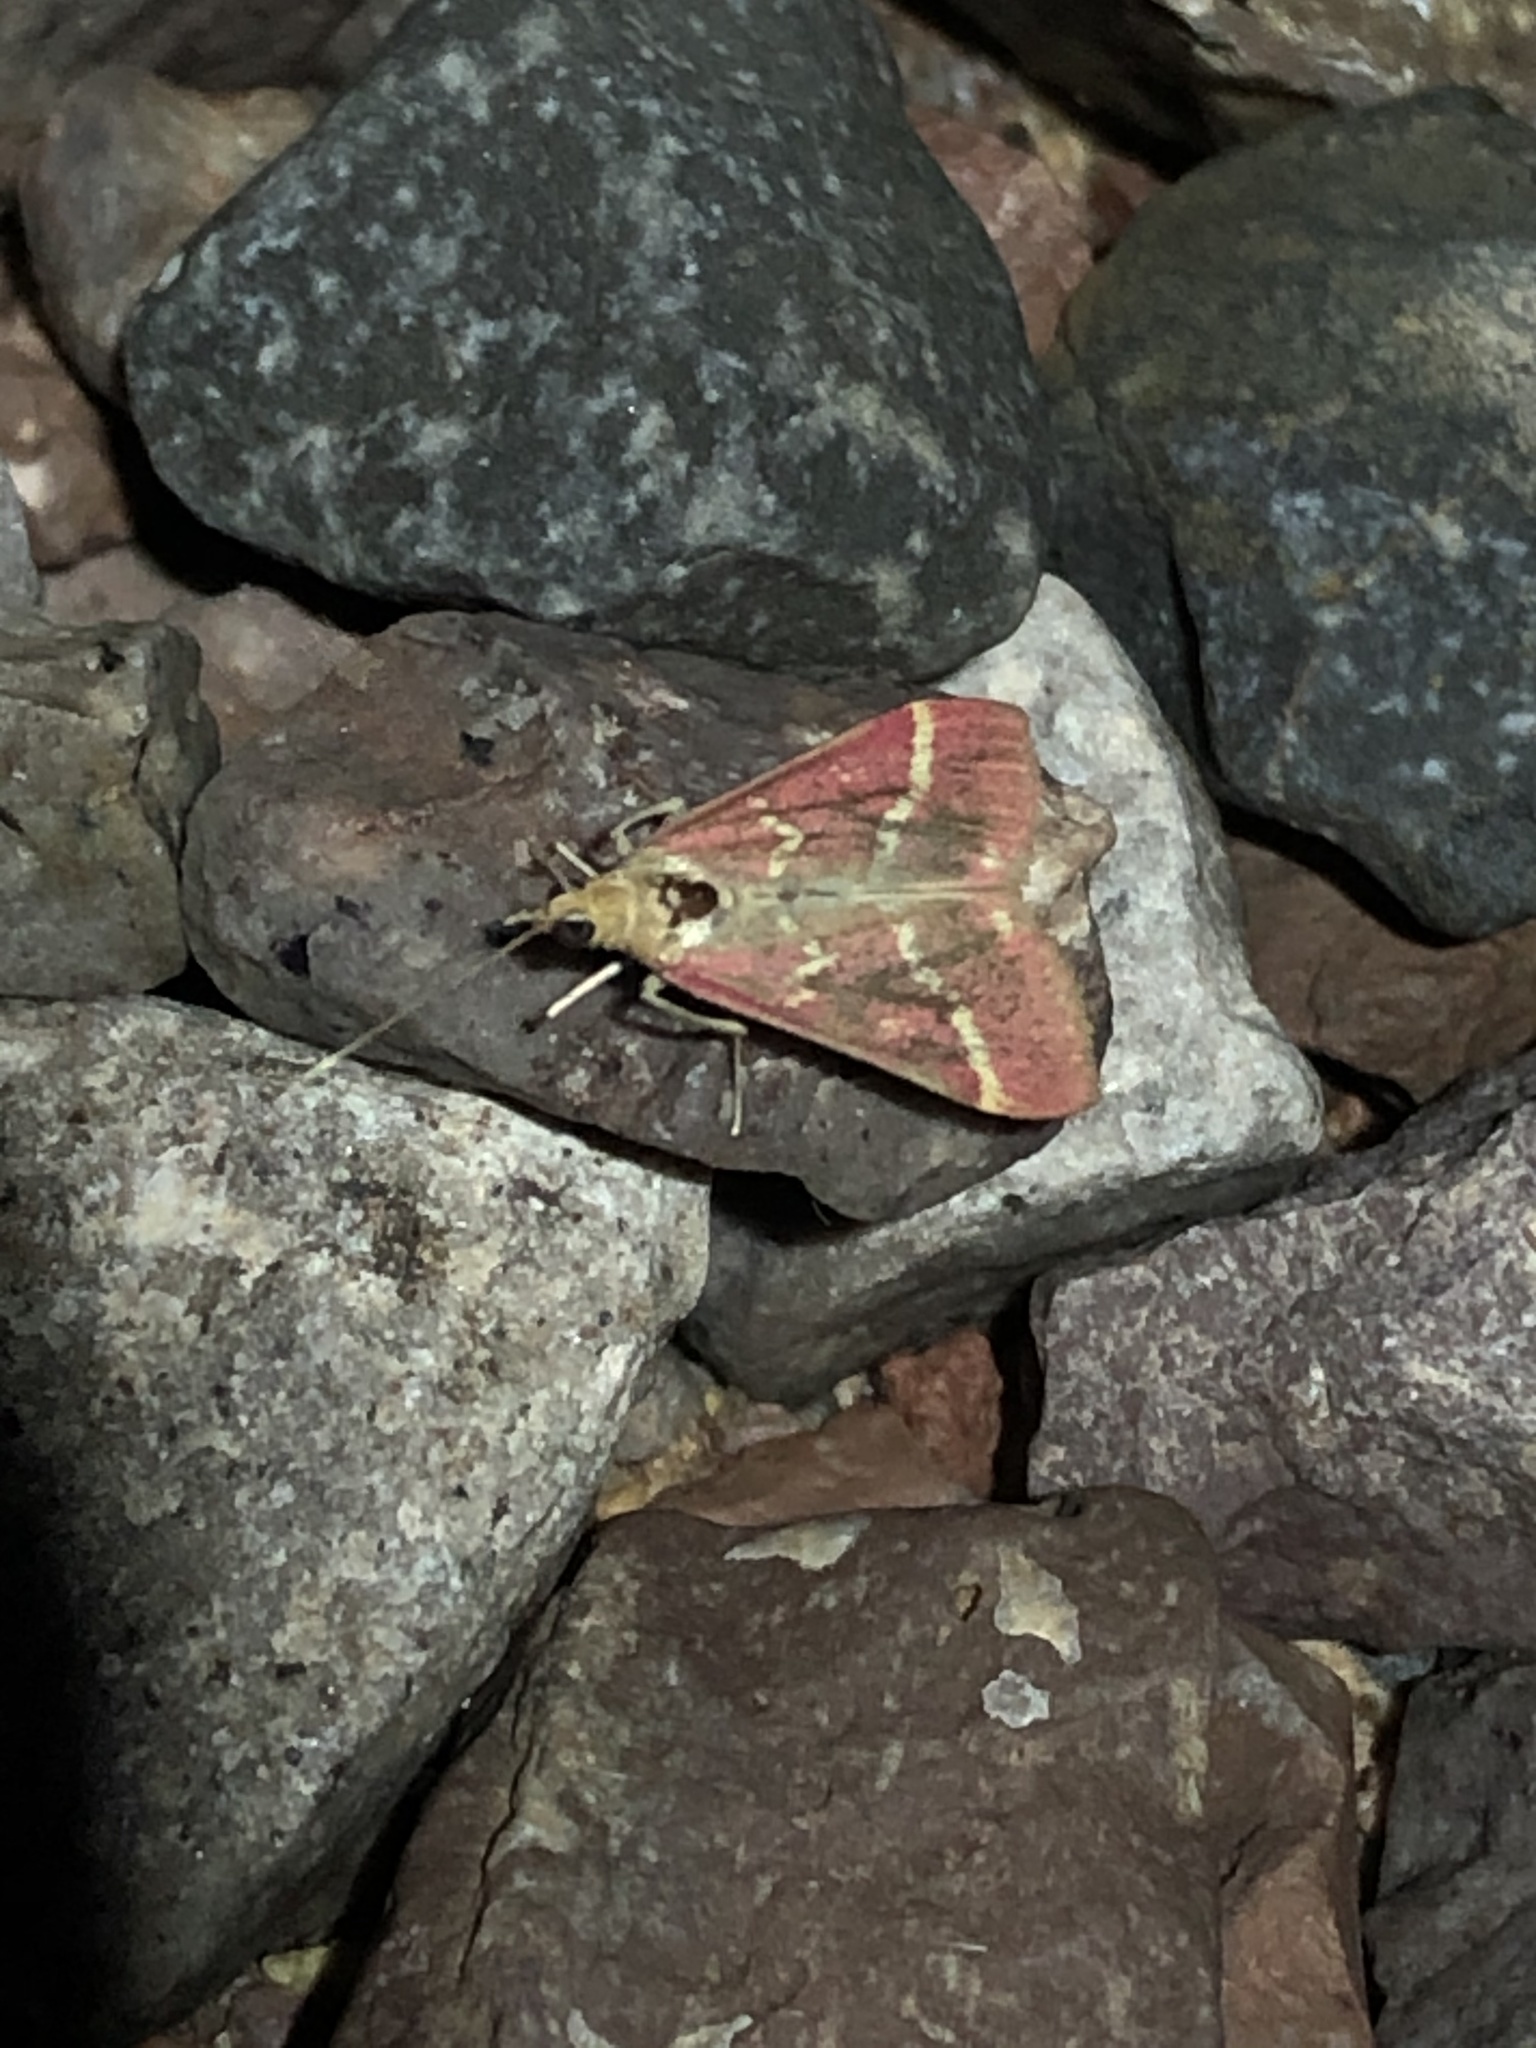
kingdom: Animalia
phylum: Arthropoda
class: Insecta
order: Lepidoptera
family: Crambidae
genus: Pyrausta
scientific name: Pyrausta volupialis
